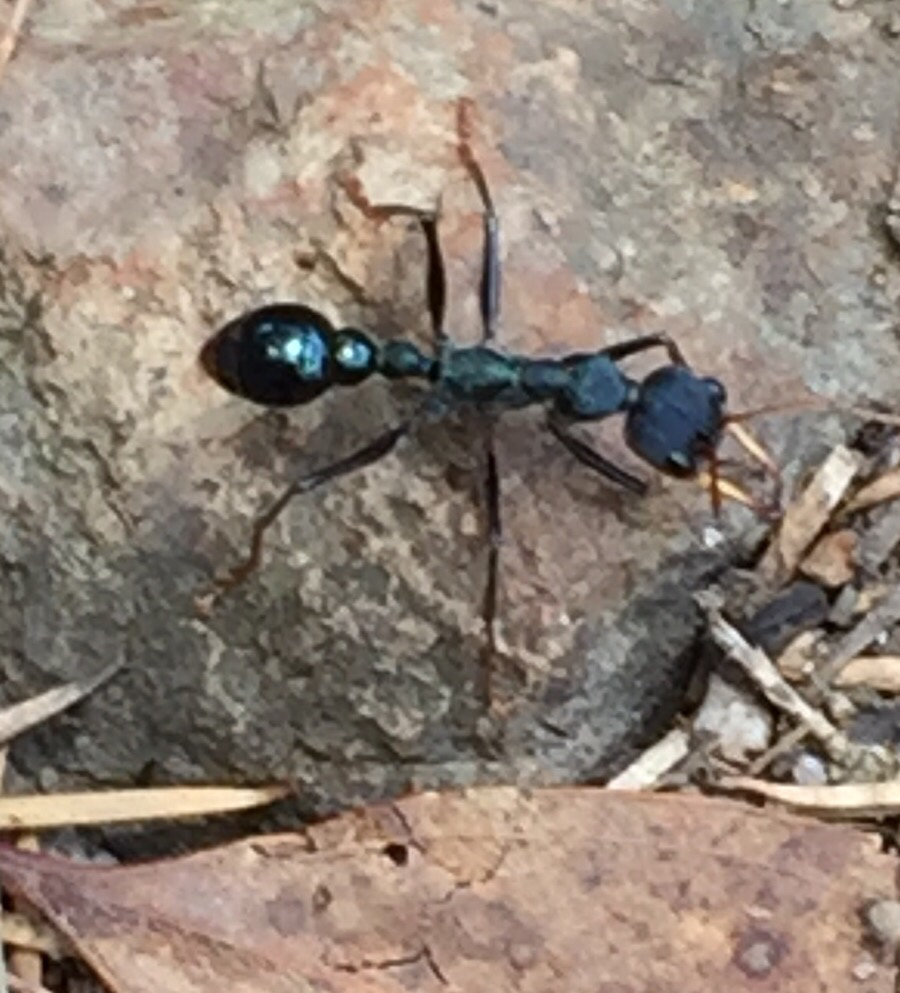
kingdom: Animalia
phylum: Arthropoda
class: Insecta
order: Hymenoptera
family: Formicidae
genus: Myrmecia
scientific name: Myrmecia tarsata
